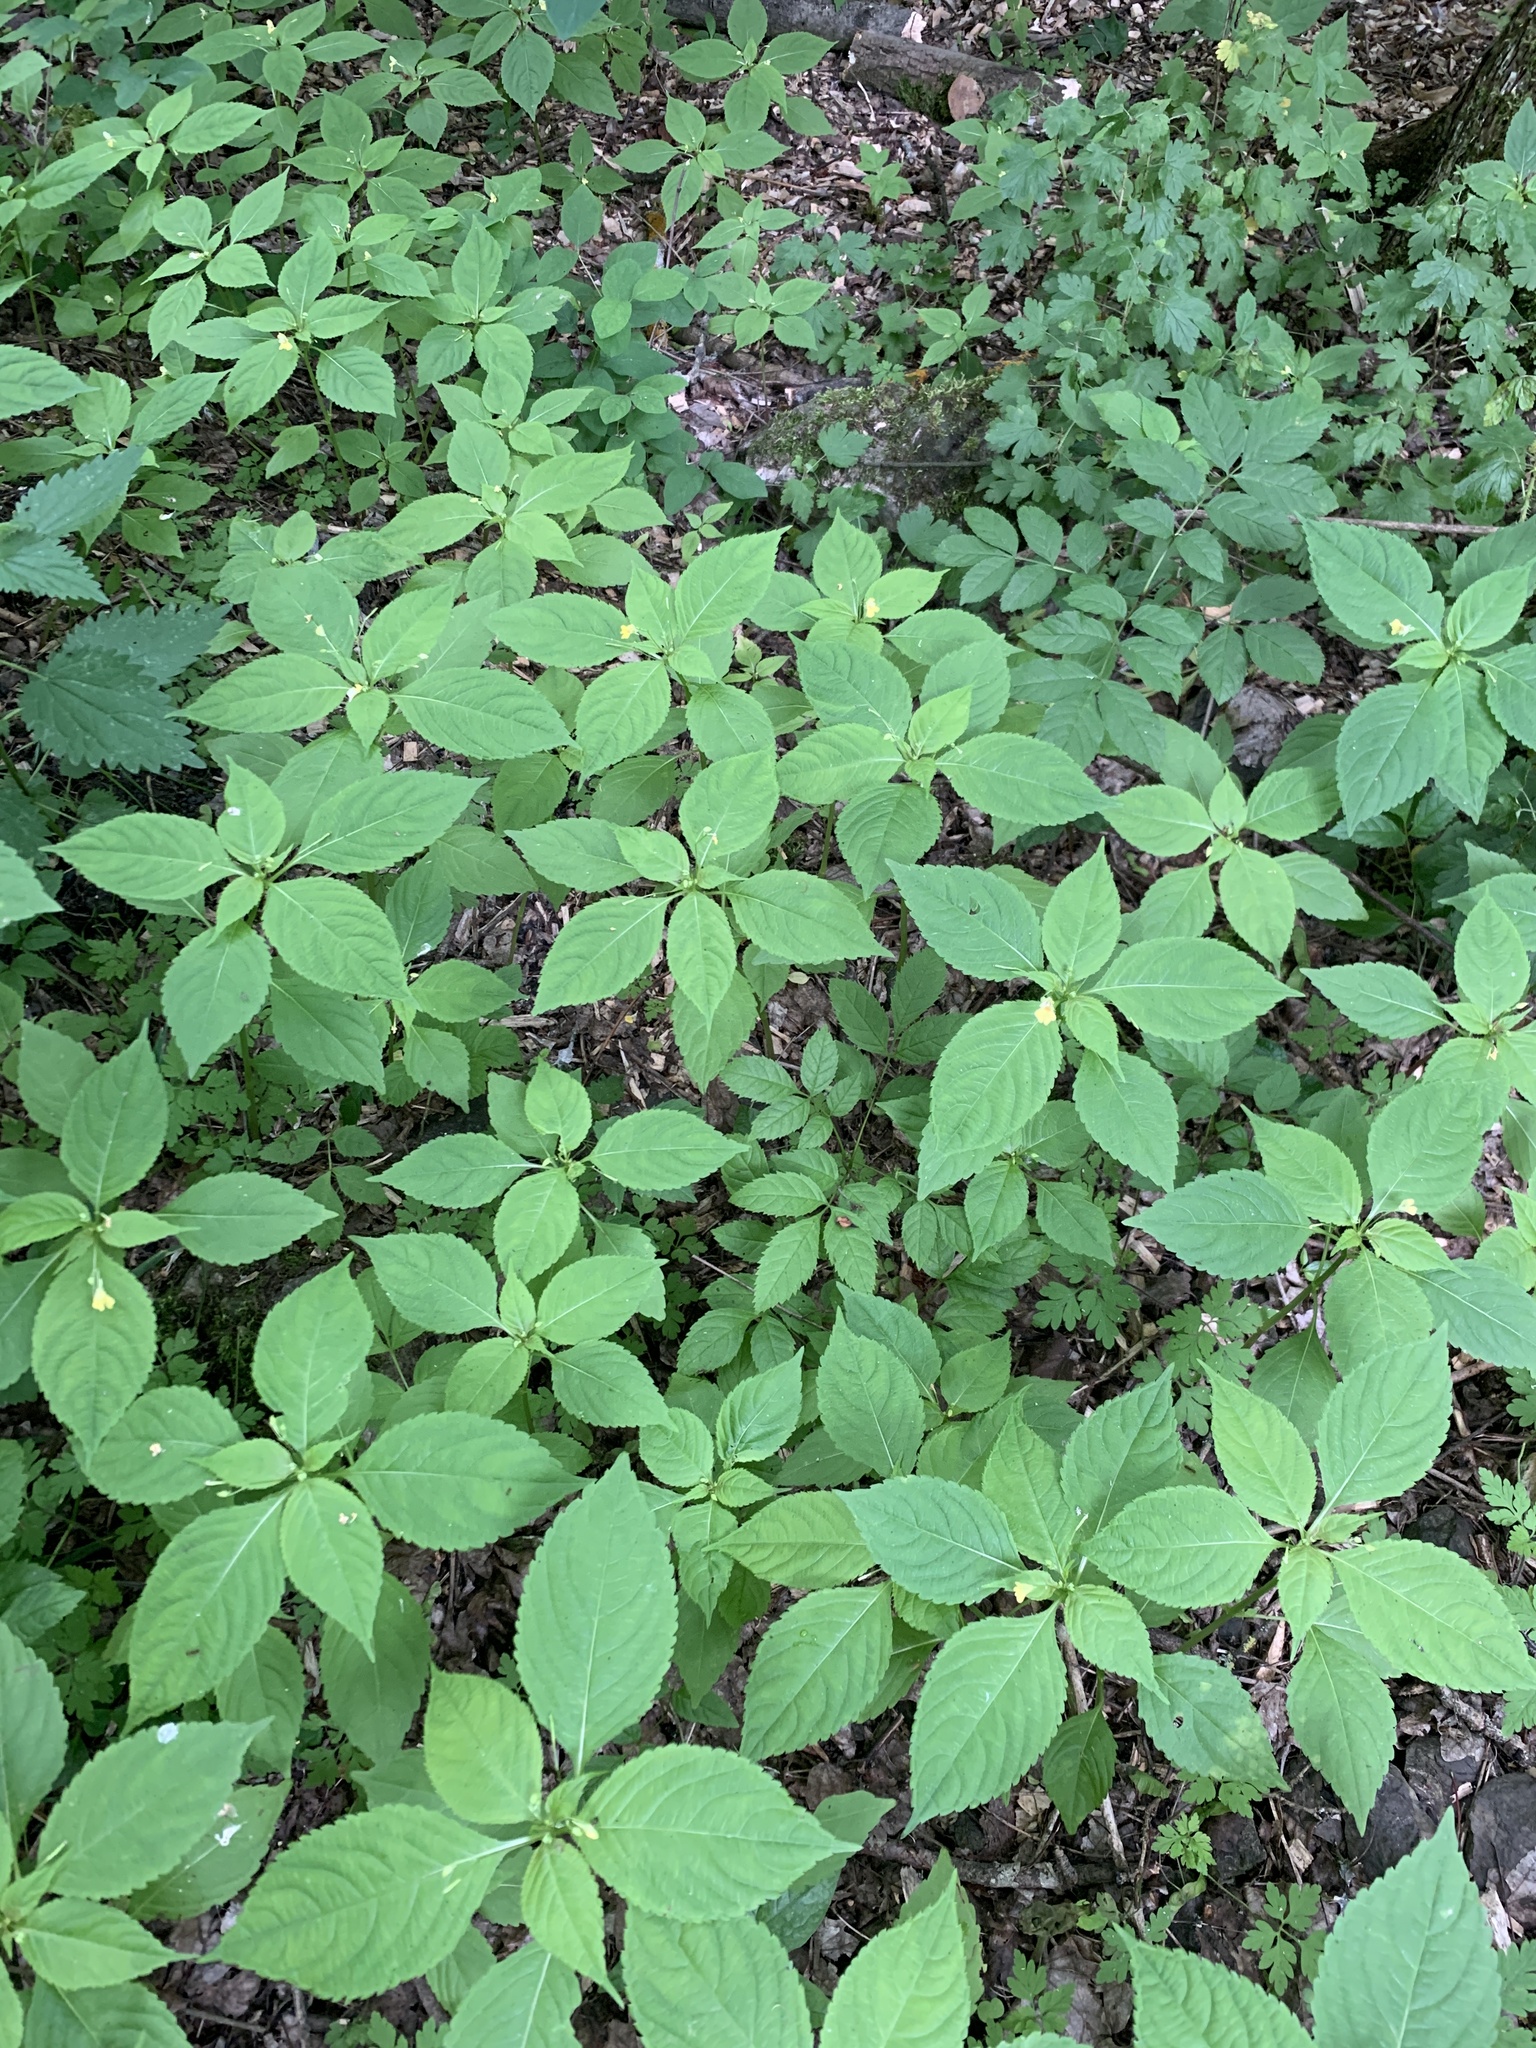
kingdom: Plantae
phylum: Tracheophyta
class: Magnoliopsida
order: Ericales
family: Balsaminaceae
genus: Impatiens
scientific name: Impatiens parviflora
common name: Small balsam
